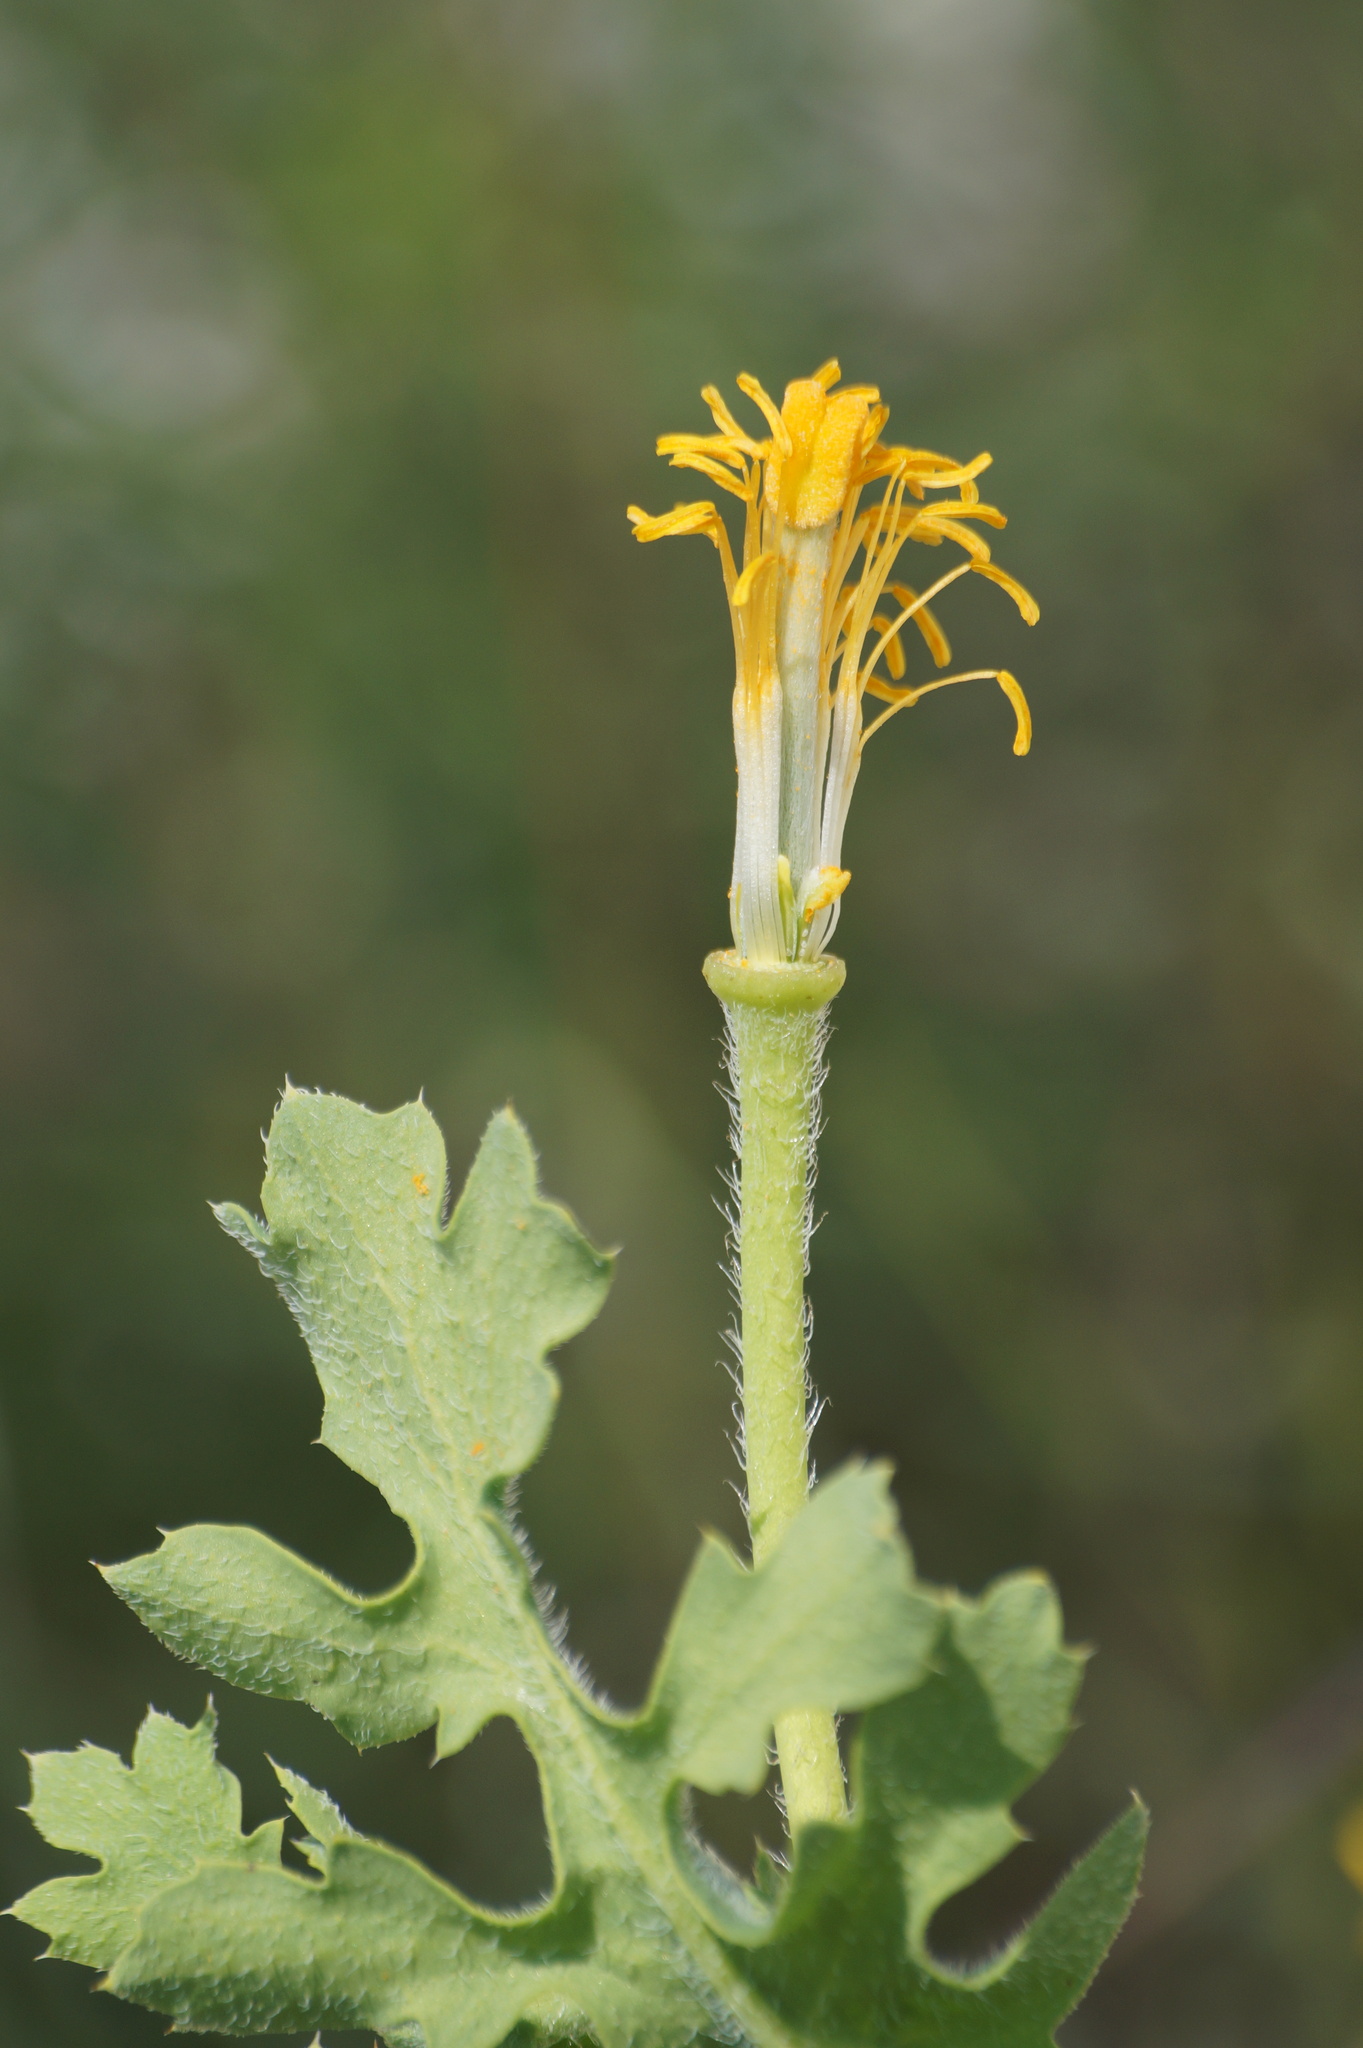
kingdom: Plantae
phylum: Tracheophyta
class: Magnoliopsida
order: Ranunculales
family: Papaveraceae
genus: Glaucium
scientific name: Glaucium corniculatum
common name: Red horned-poppy
